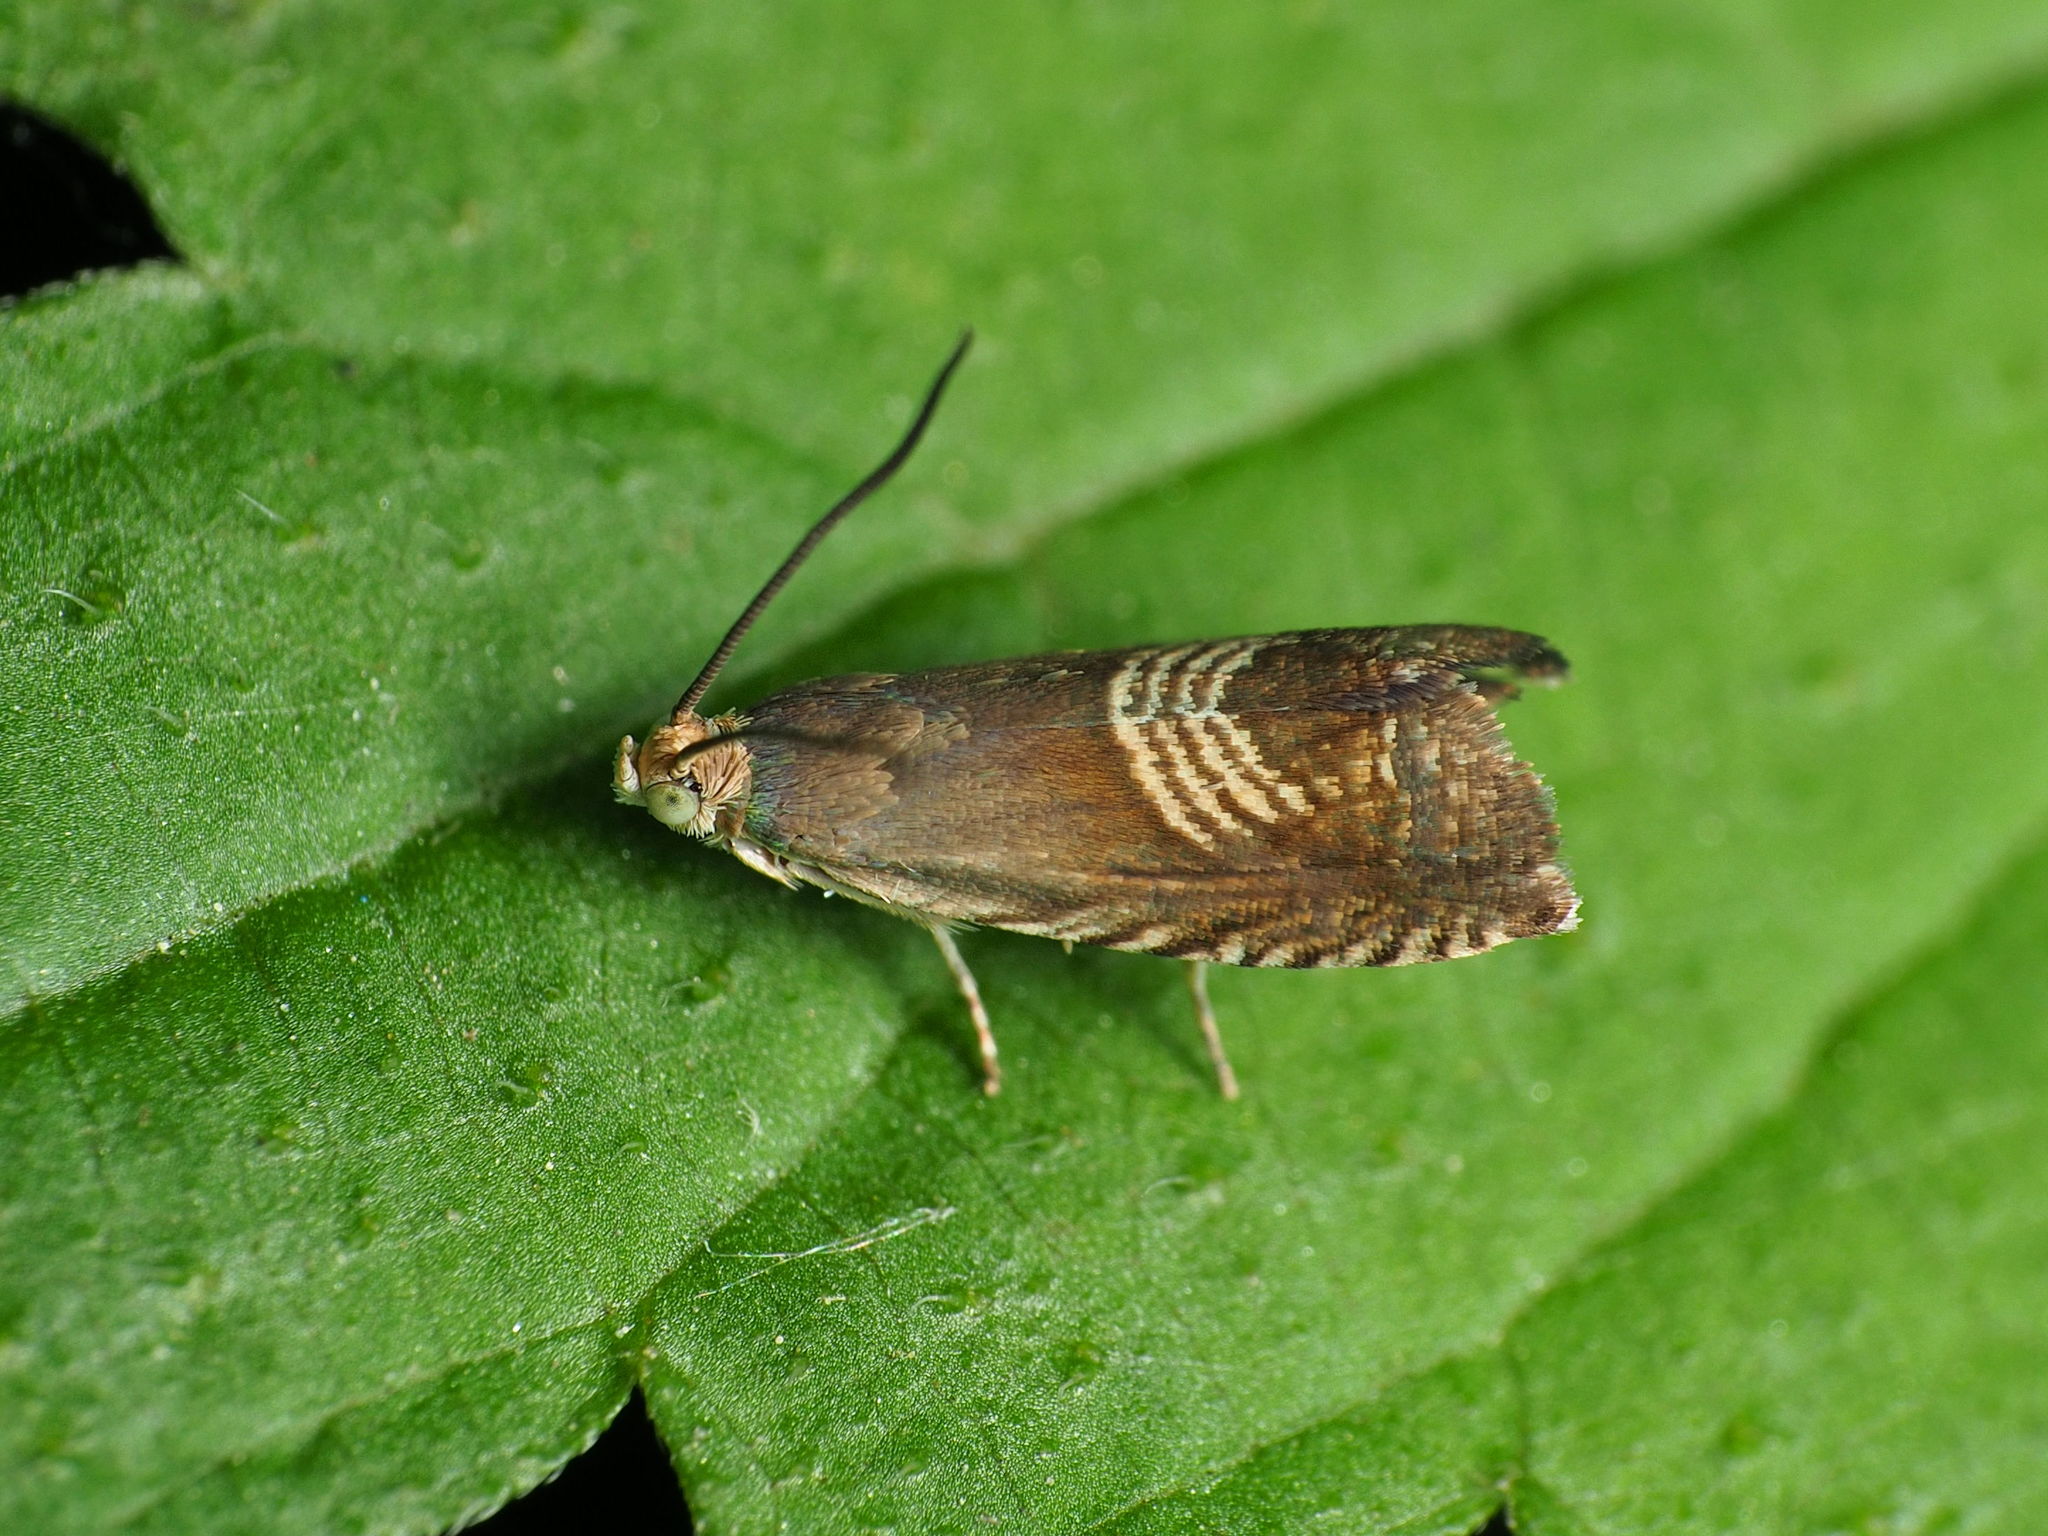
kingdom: Animalia
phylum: Arthropoda
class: Insecta
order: Lepidoptera
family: Tortricidae
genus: Grapholita
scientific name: Grapholita tristrigana
